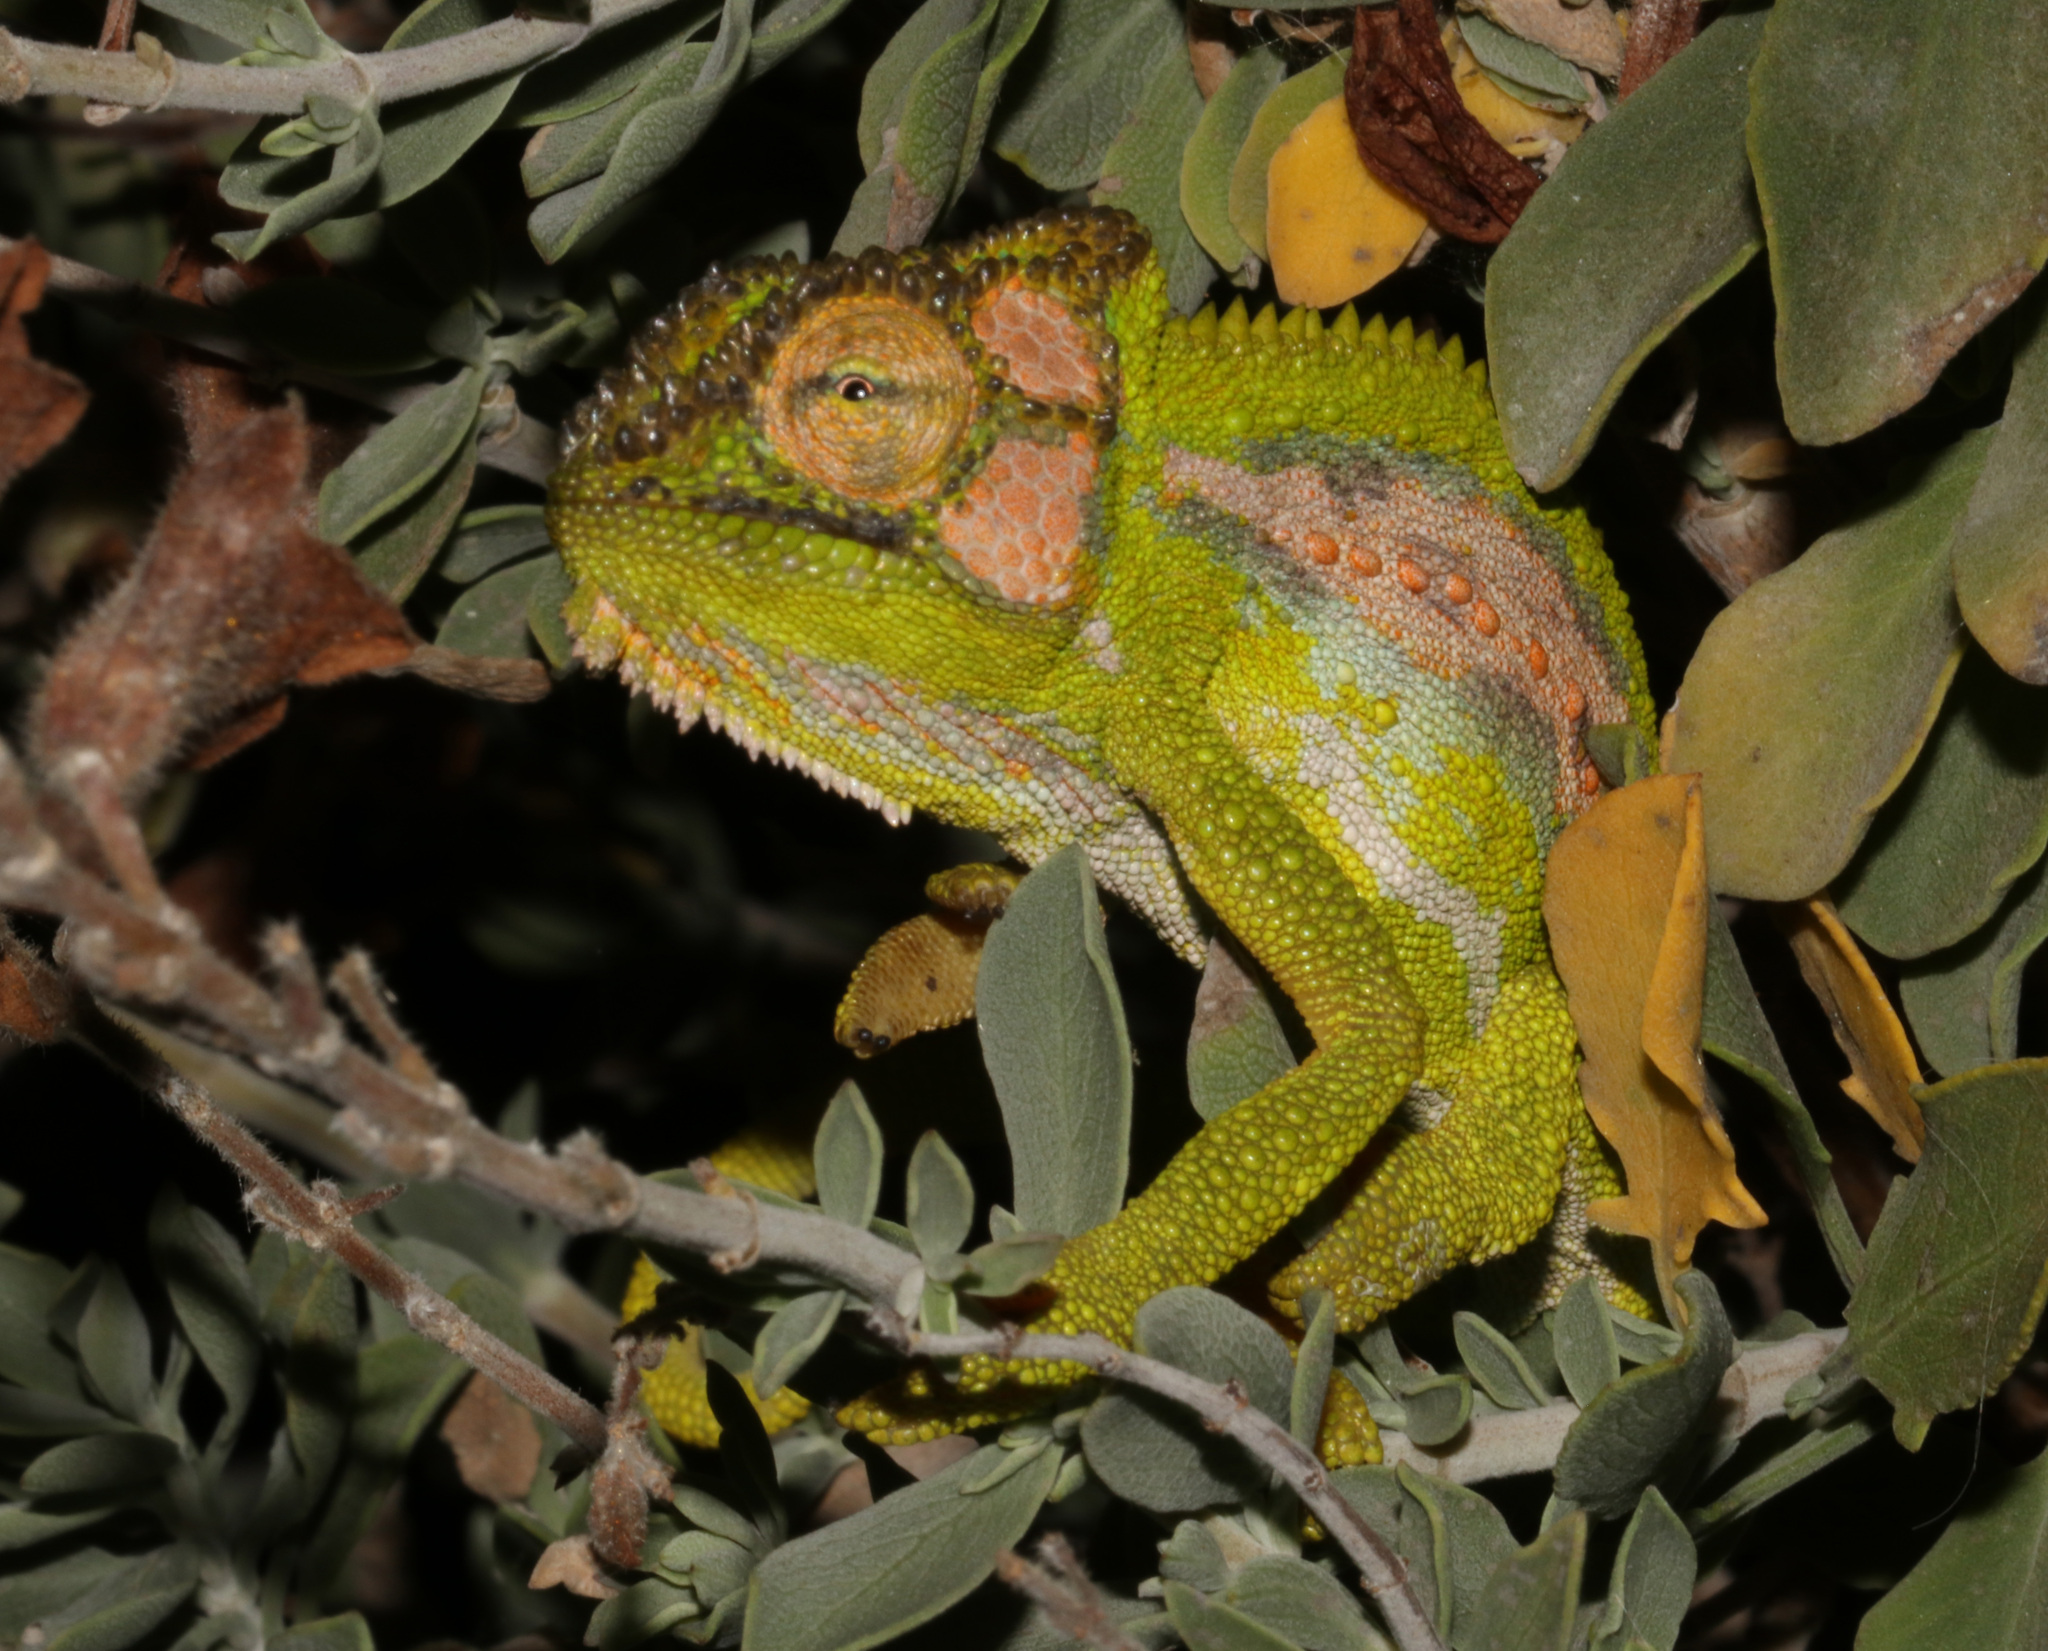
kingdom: Animalia
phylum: Chordata
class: Squamata
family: Chamaeleonidae
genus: Bradypodion
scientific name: Bradypodion pumilum
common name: Cape dwarf chameleon
